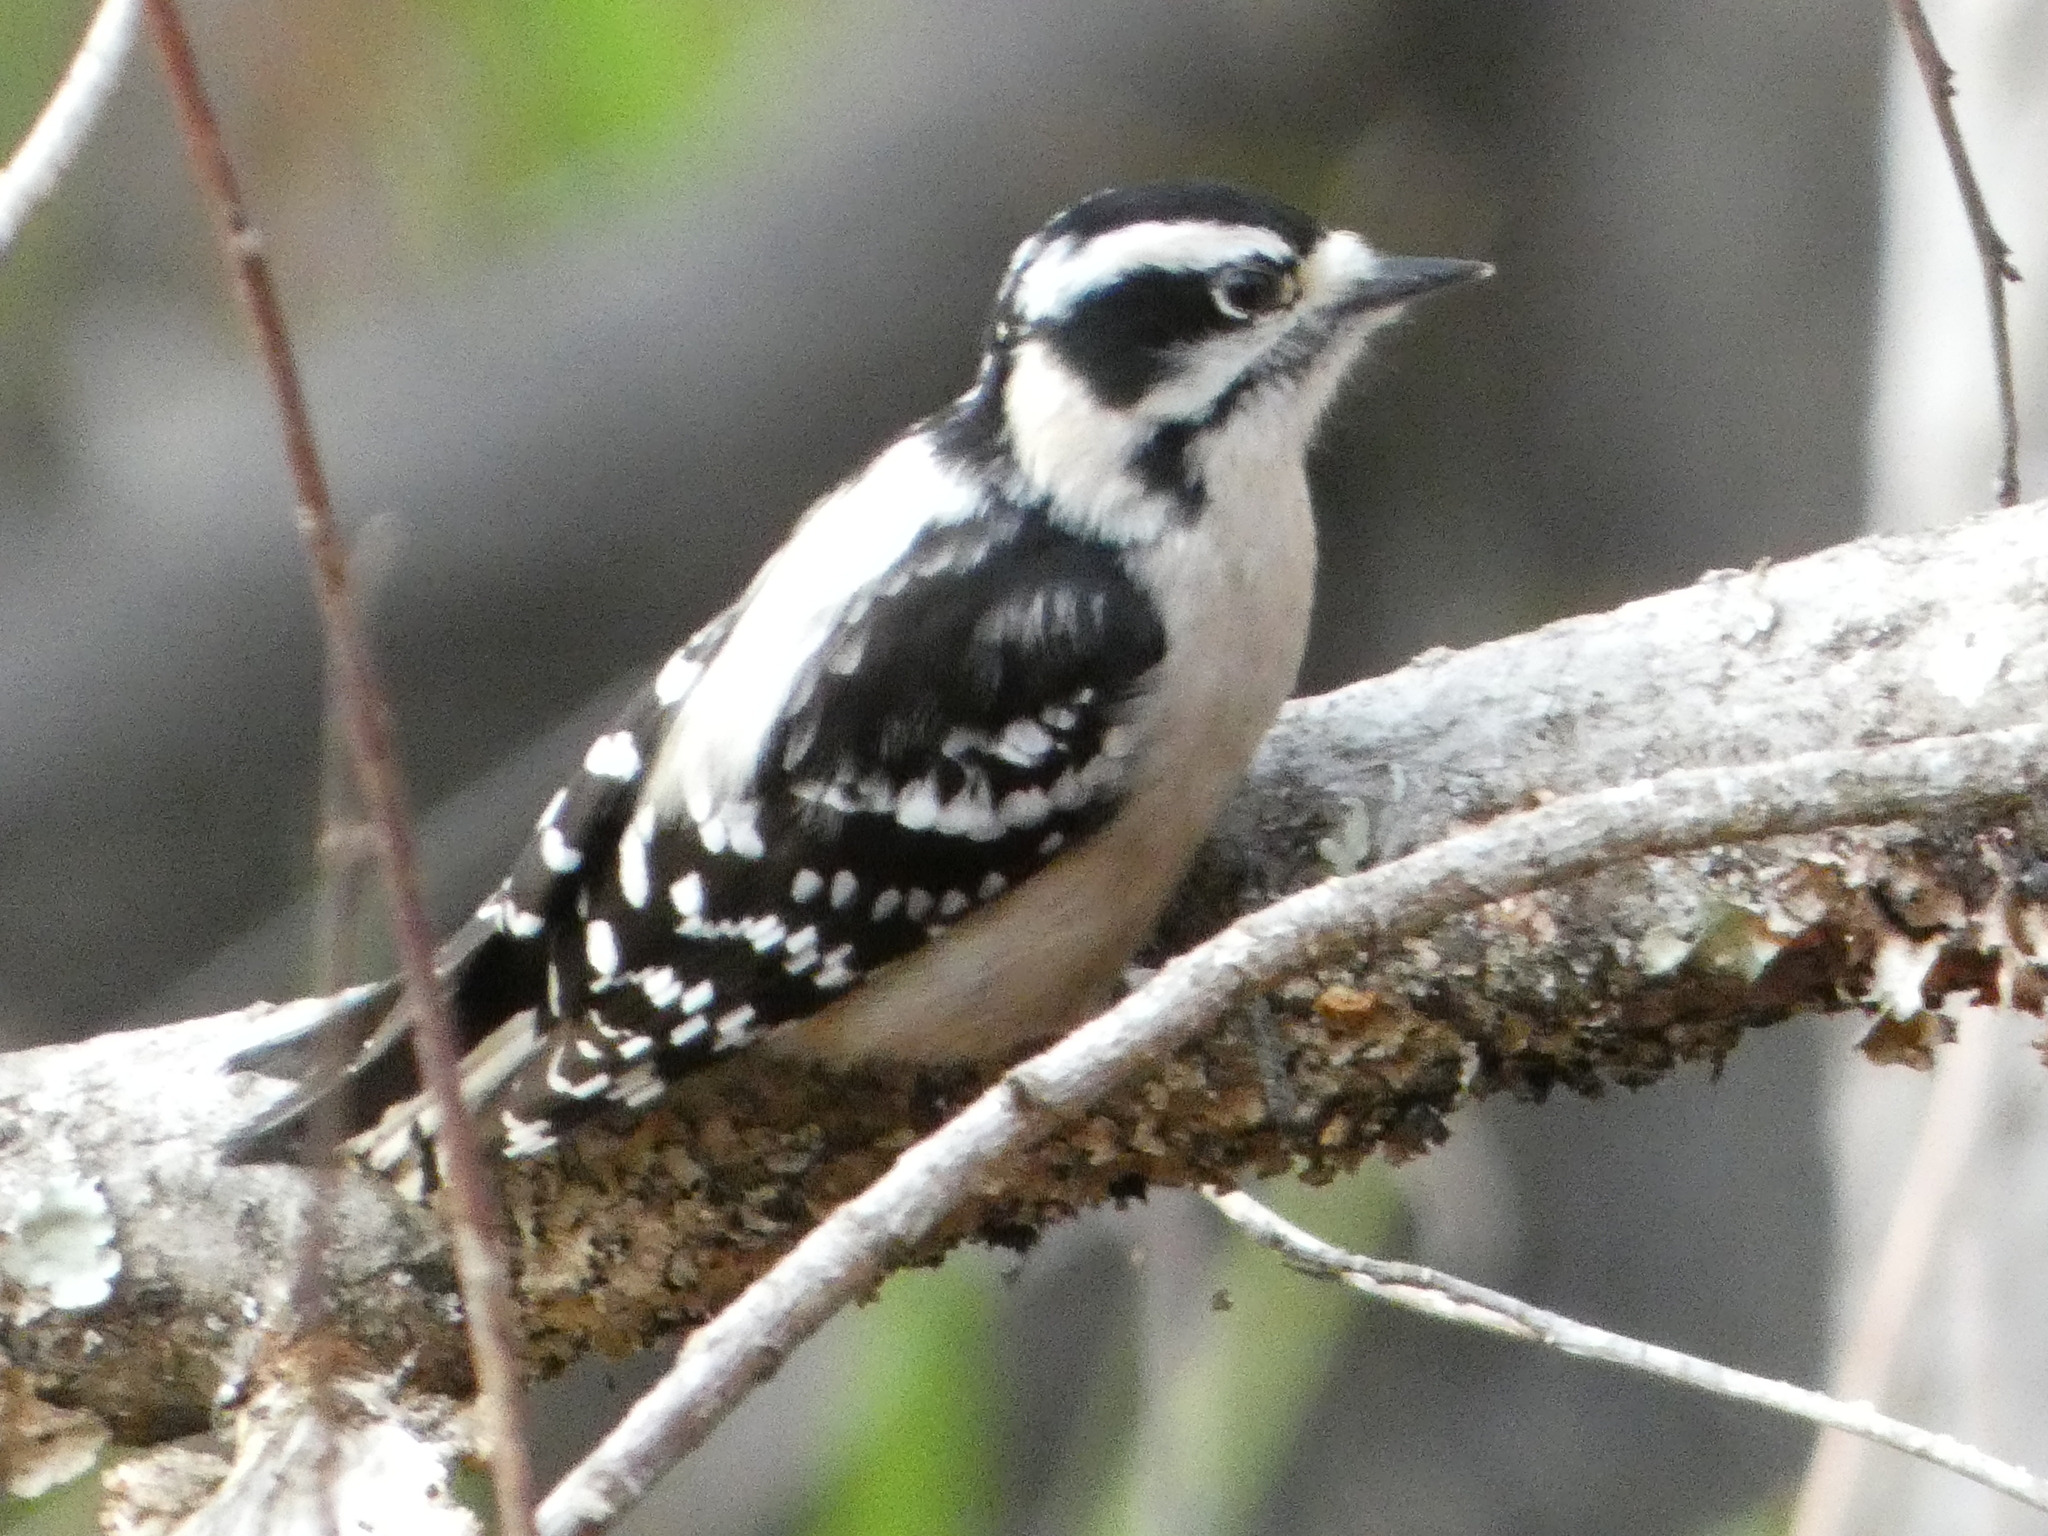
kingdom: Animalia
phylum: Chordata
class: Aves
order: Piciformes
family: Picidae
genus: Dryobates
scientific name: Dryobates pubescens
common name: Downy woodpecker
